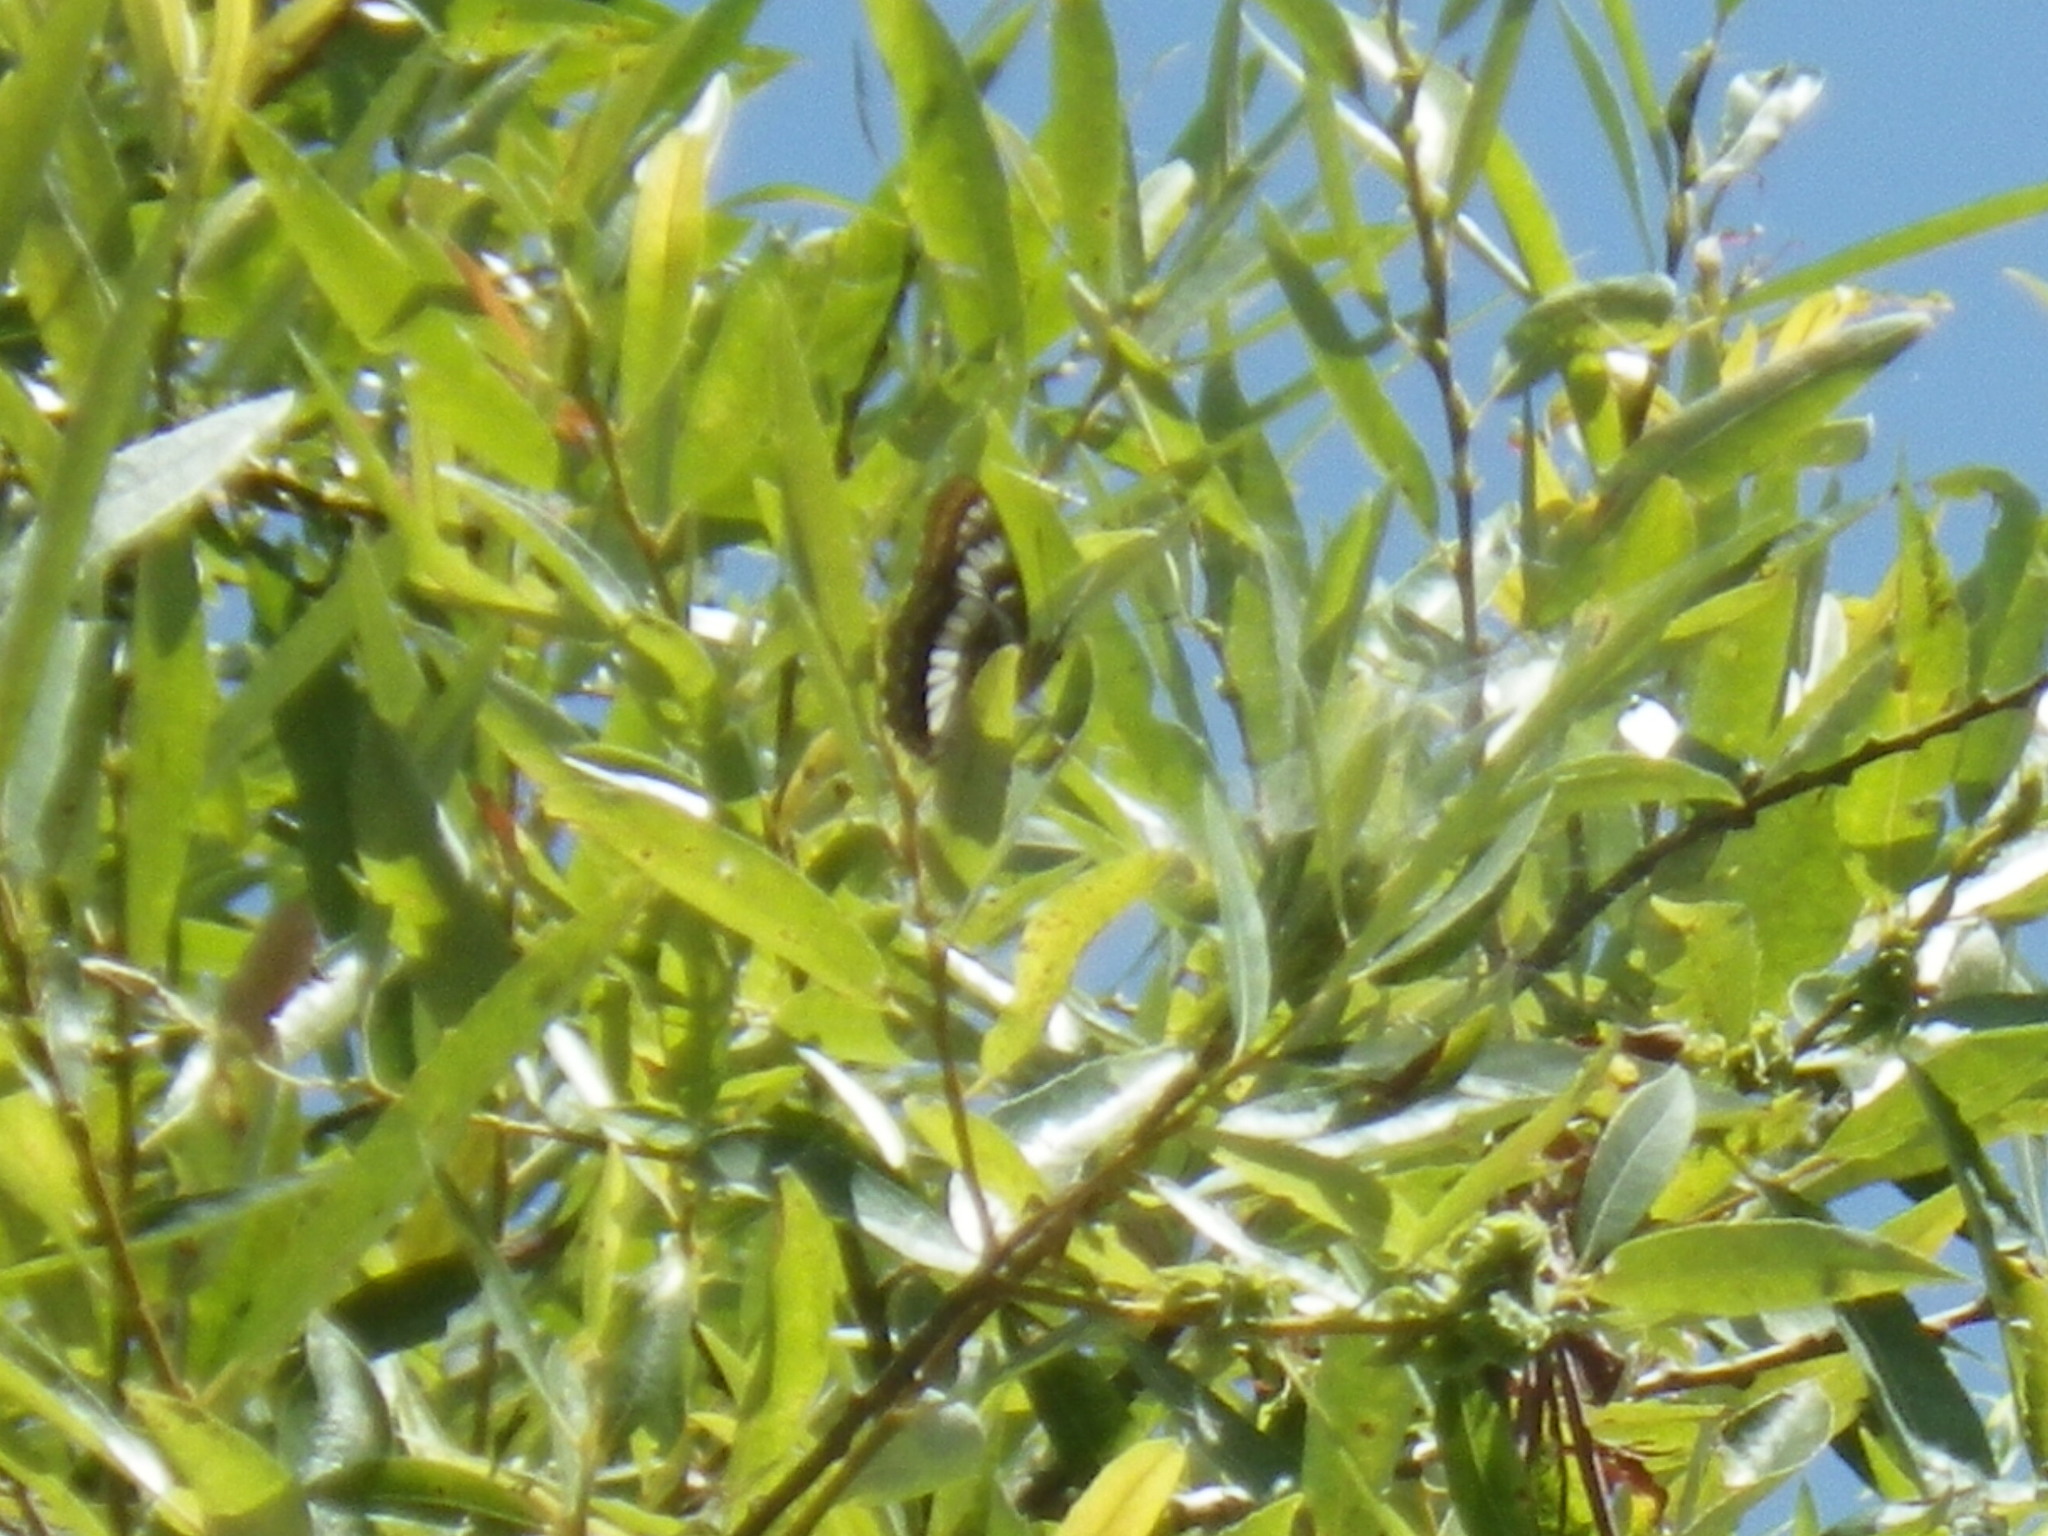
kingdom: Animalia
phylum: Arthropoda
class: Insecta
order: Lepidoptera
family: Nymphalidae
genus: Limenitis
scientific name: Limenitis lorquini
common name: Lorquin's admiral
